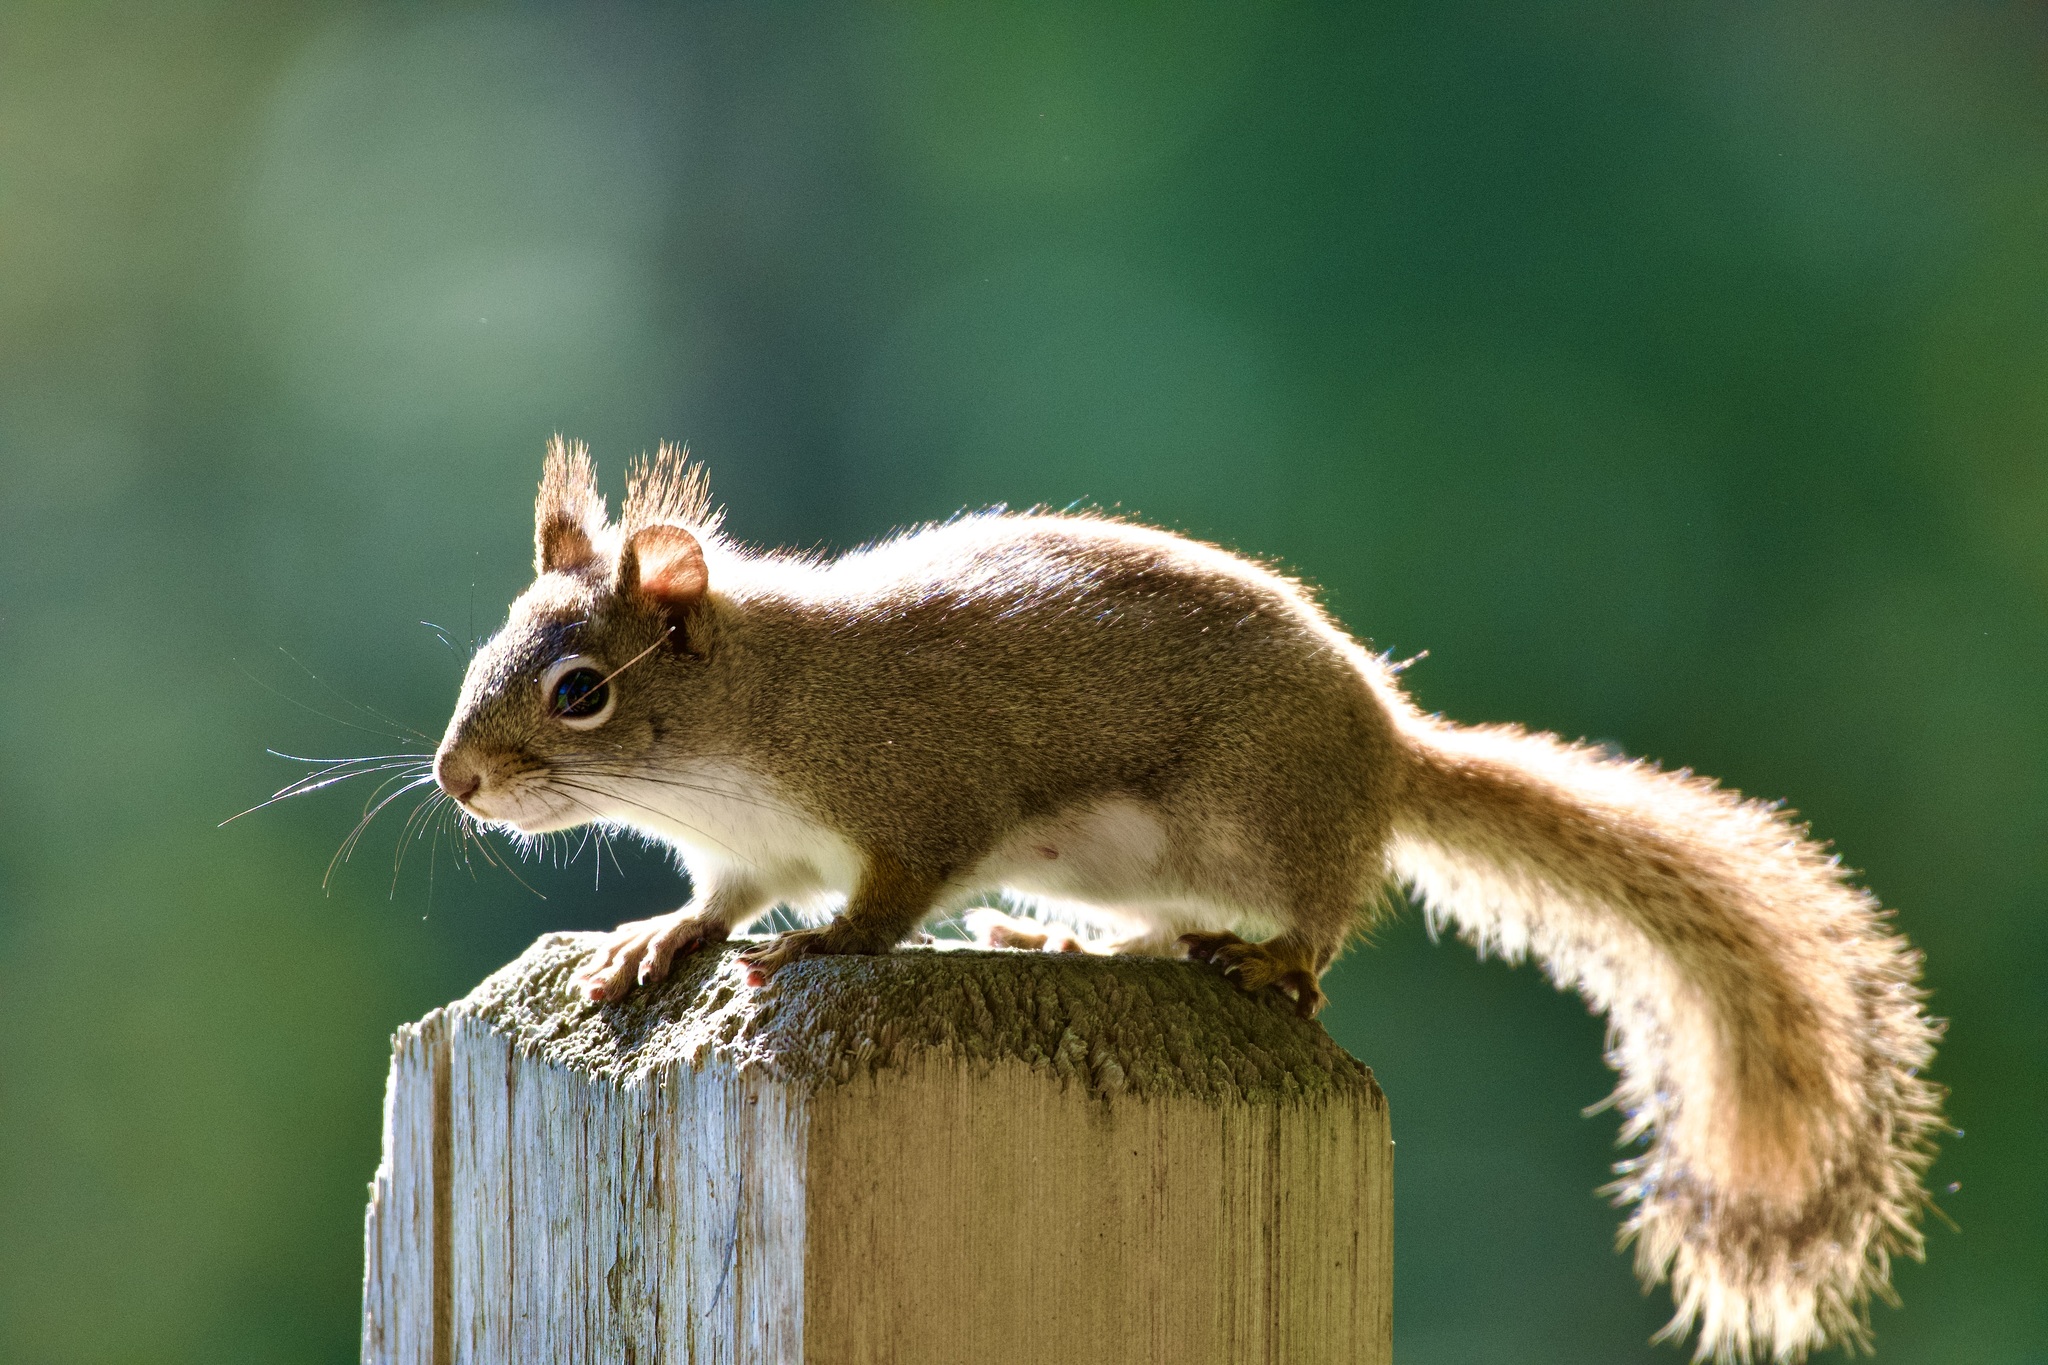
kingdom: Animalia
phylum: Chordata
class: Mammalia
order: Rodentia
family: Sciuridae
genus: Tamiasciurus
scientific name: Tamiasciurus hudsonicus
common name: Red squirrel
